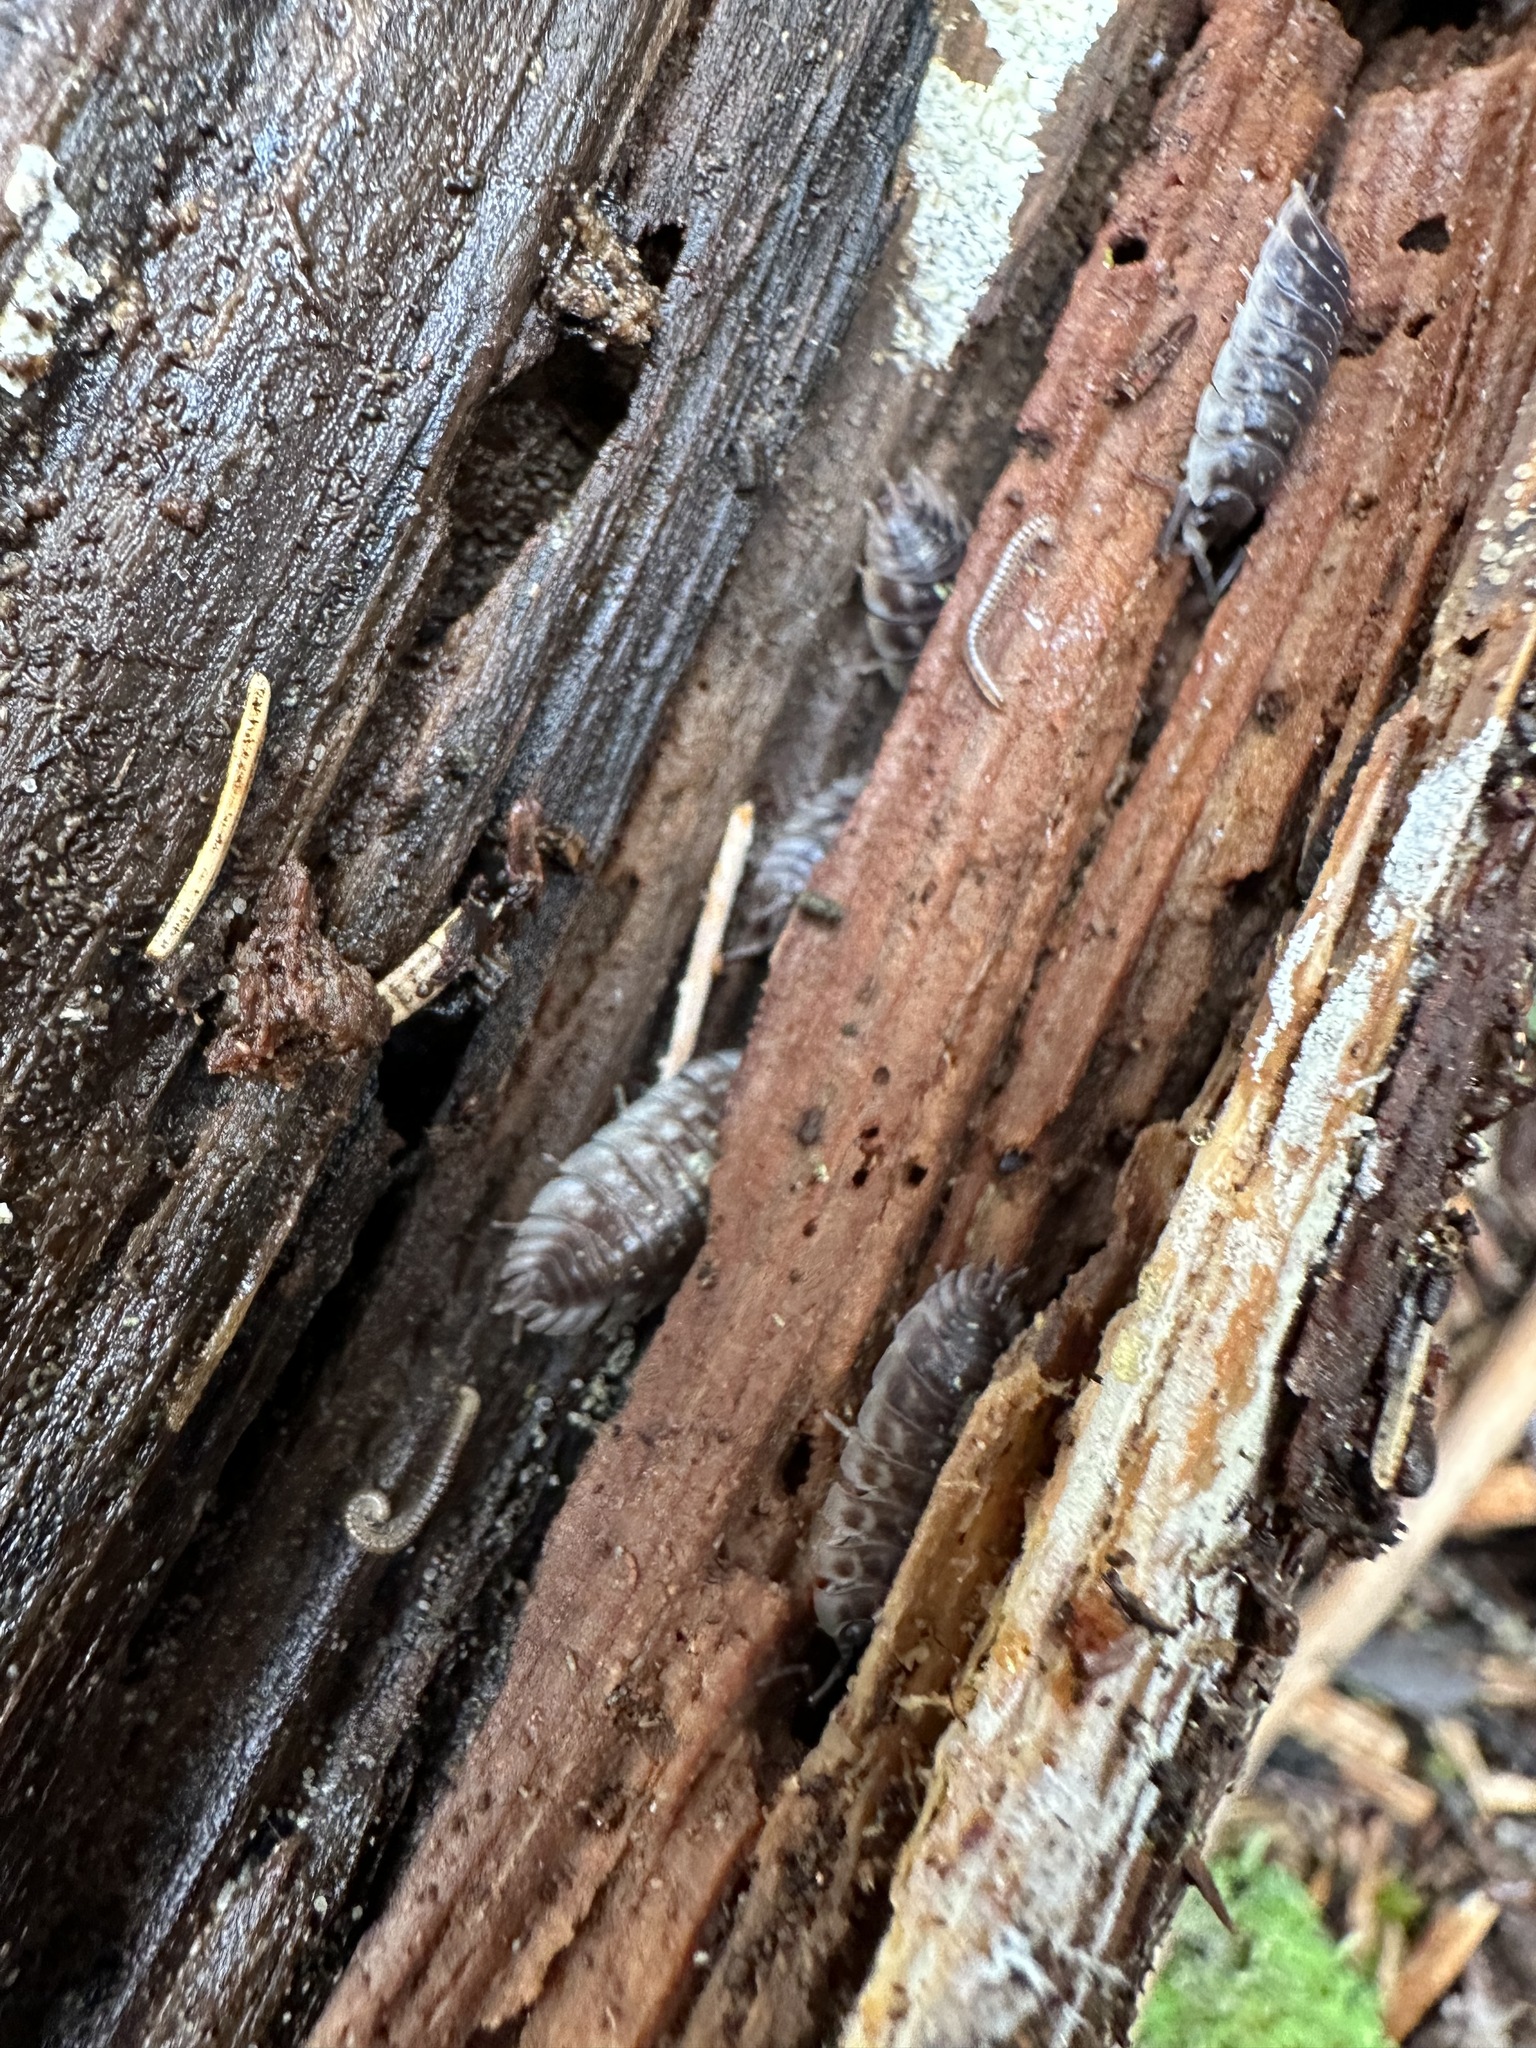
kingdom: Animalia
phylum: Arthropoda
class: Malacostraca
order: Isopoda
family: Oniscidae
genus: Oniscus
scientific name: Oniscus asellus
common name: Common shiny woodlouse
